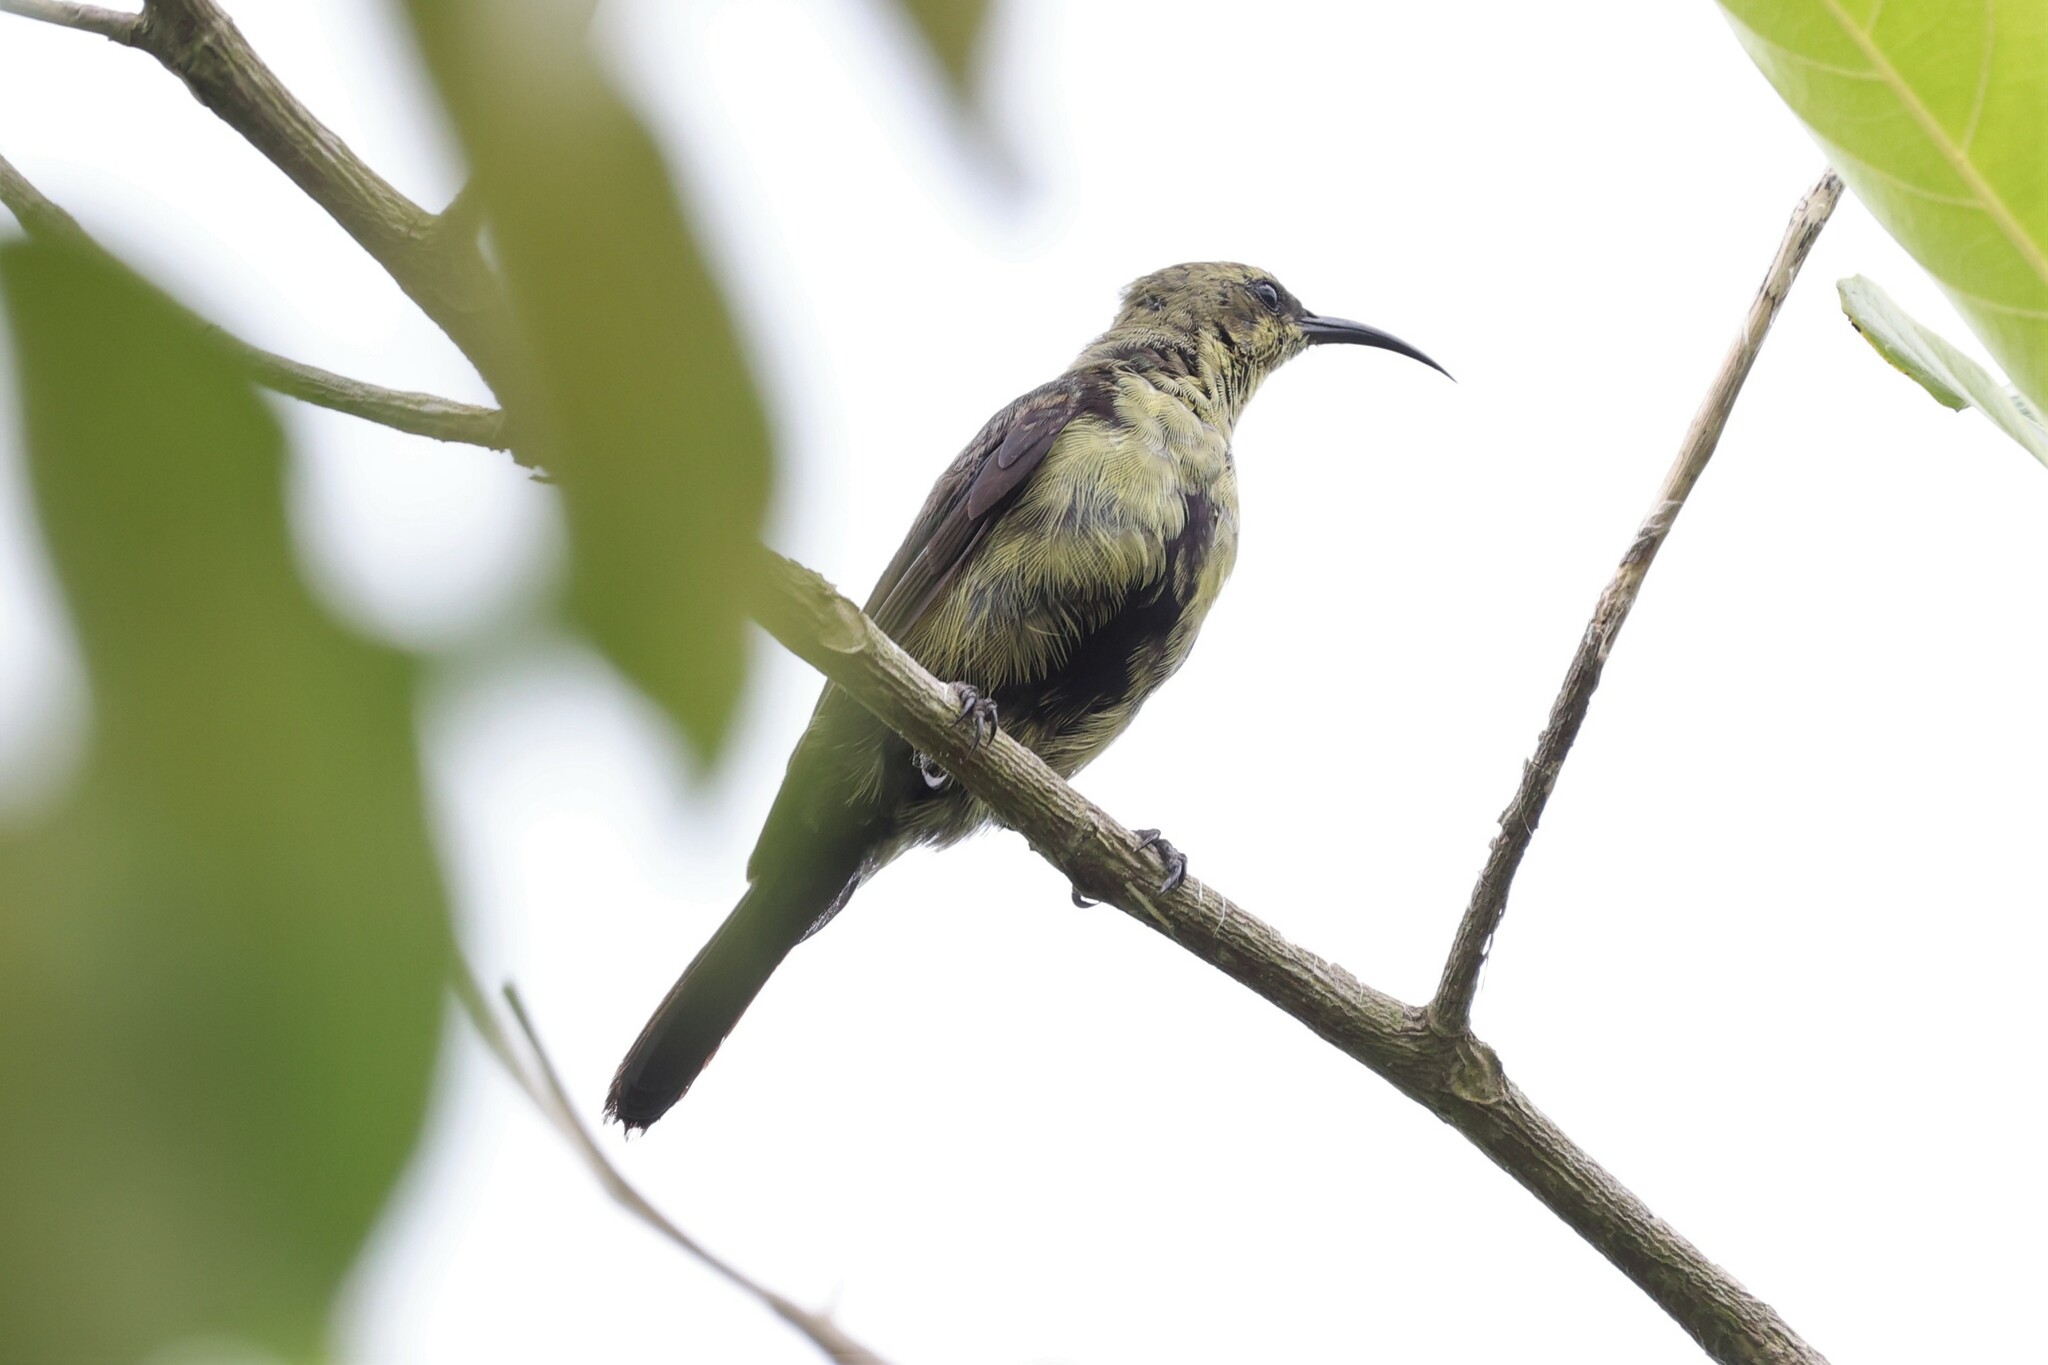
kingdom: Animalia
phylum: Chordata
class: Aves
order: Passeriformes
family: Nectariniidae
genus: Cinnyris
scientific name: Cinnyris cupreus
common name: Copper sunbird
